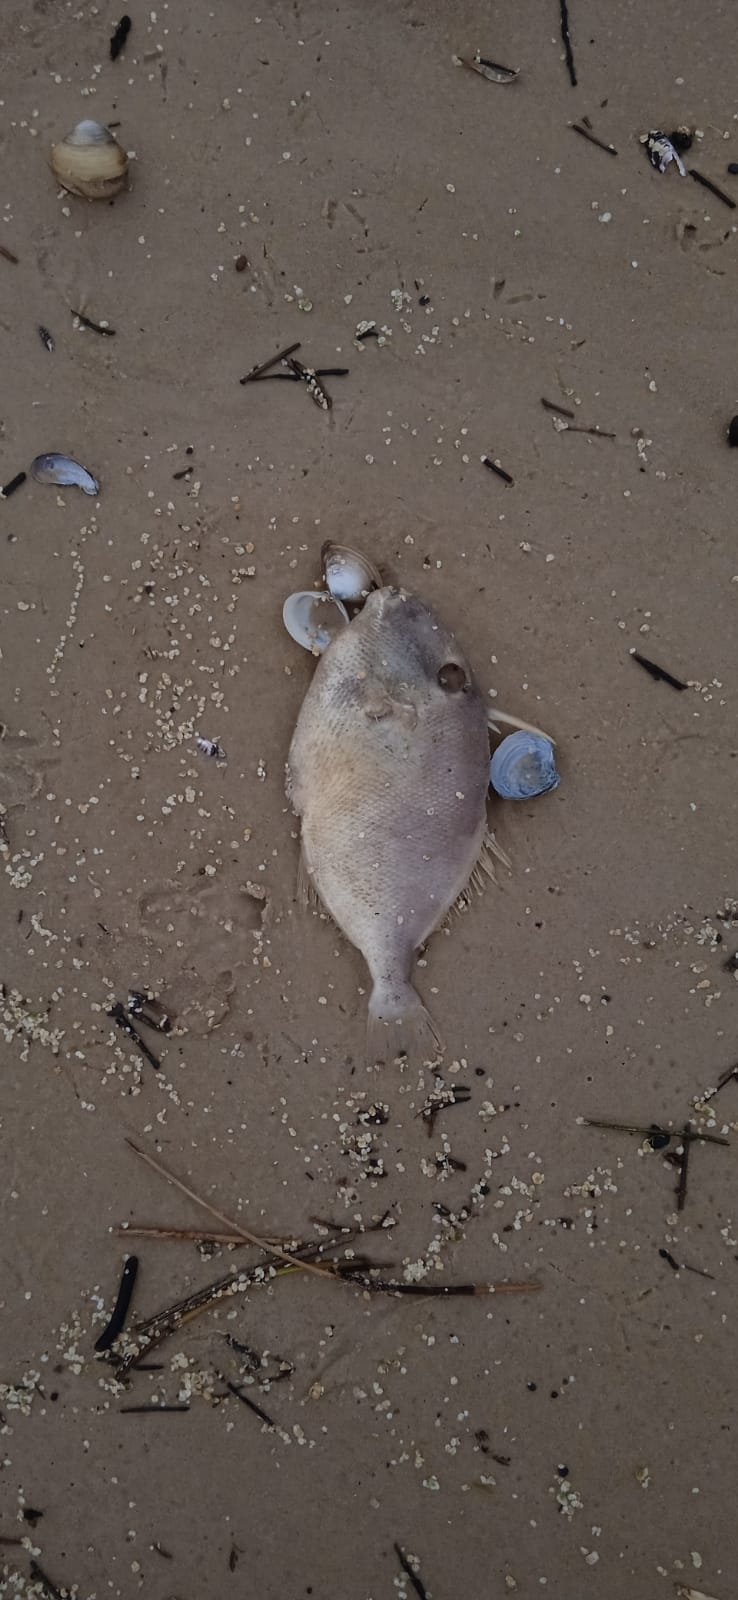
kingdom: Animalia
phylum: Chordata
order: Tetraodontiformes
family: Balistidae
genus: Balistes
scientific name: Balistes capriscus
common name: Grey triggerfish
